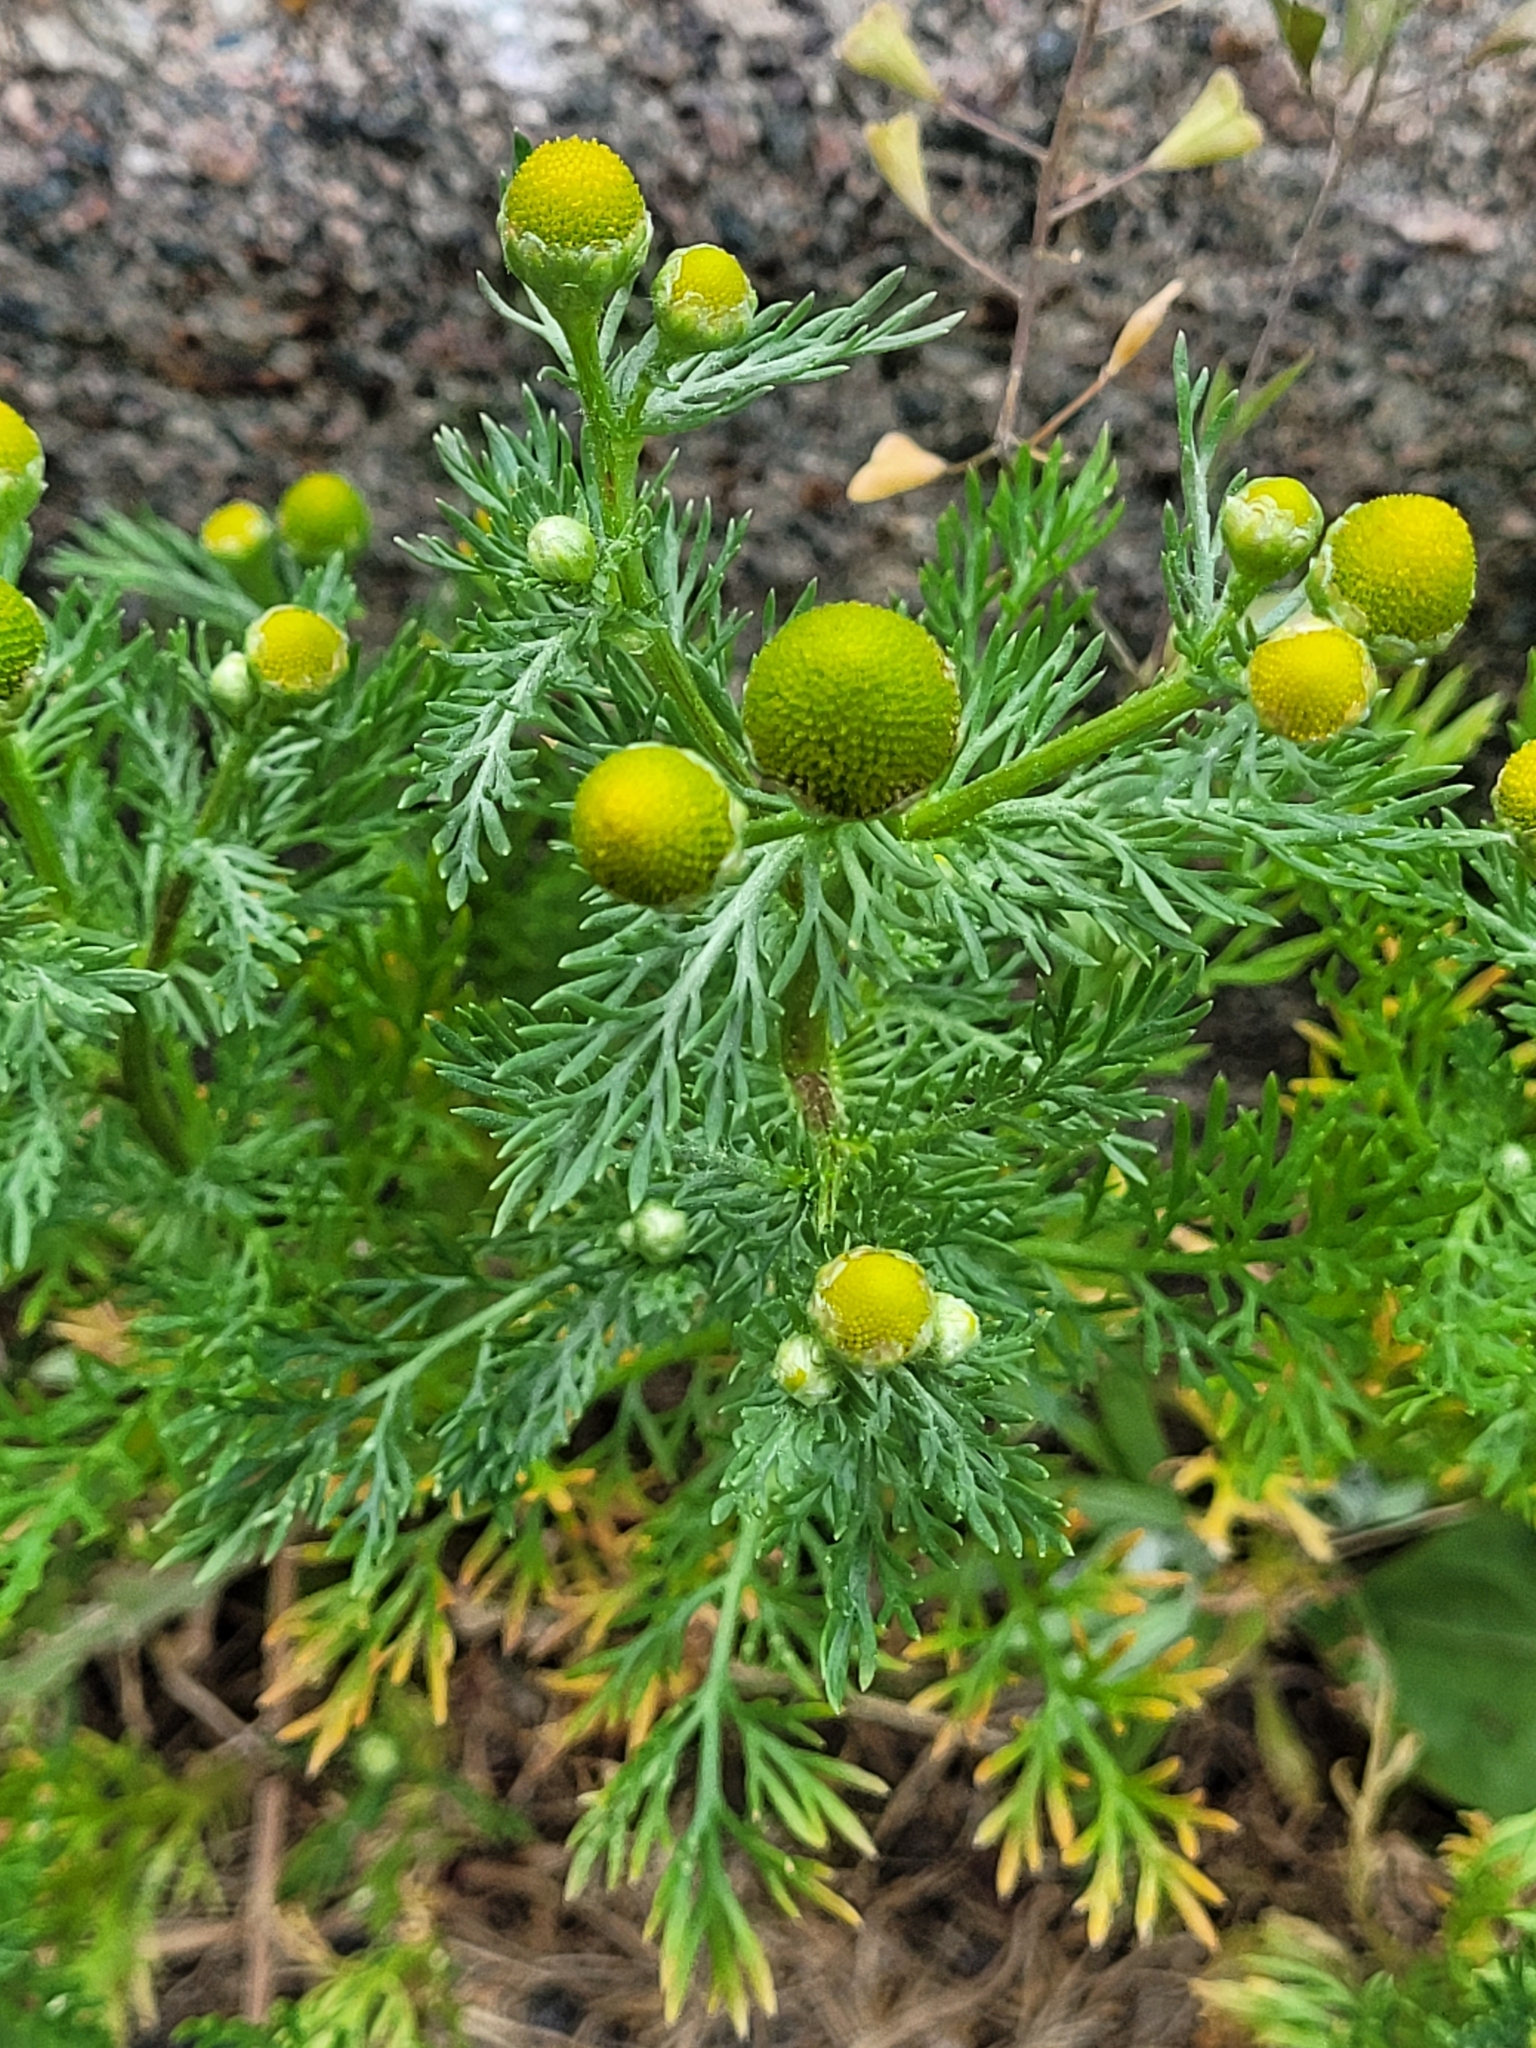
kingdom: Plantae
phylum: Tracheophyta
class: Magnoliopsida
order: Asterales
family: Asteraceae
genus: Matricaria
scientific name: Matricaria discoidea
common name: Disc mayweed
